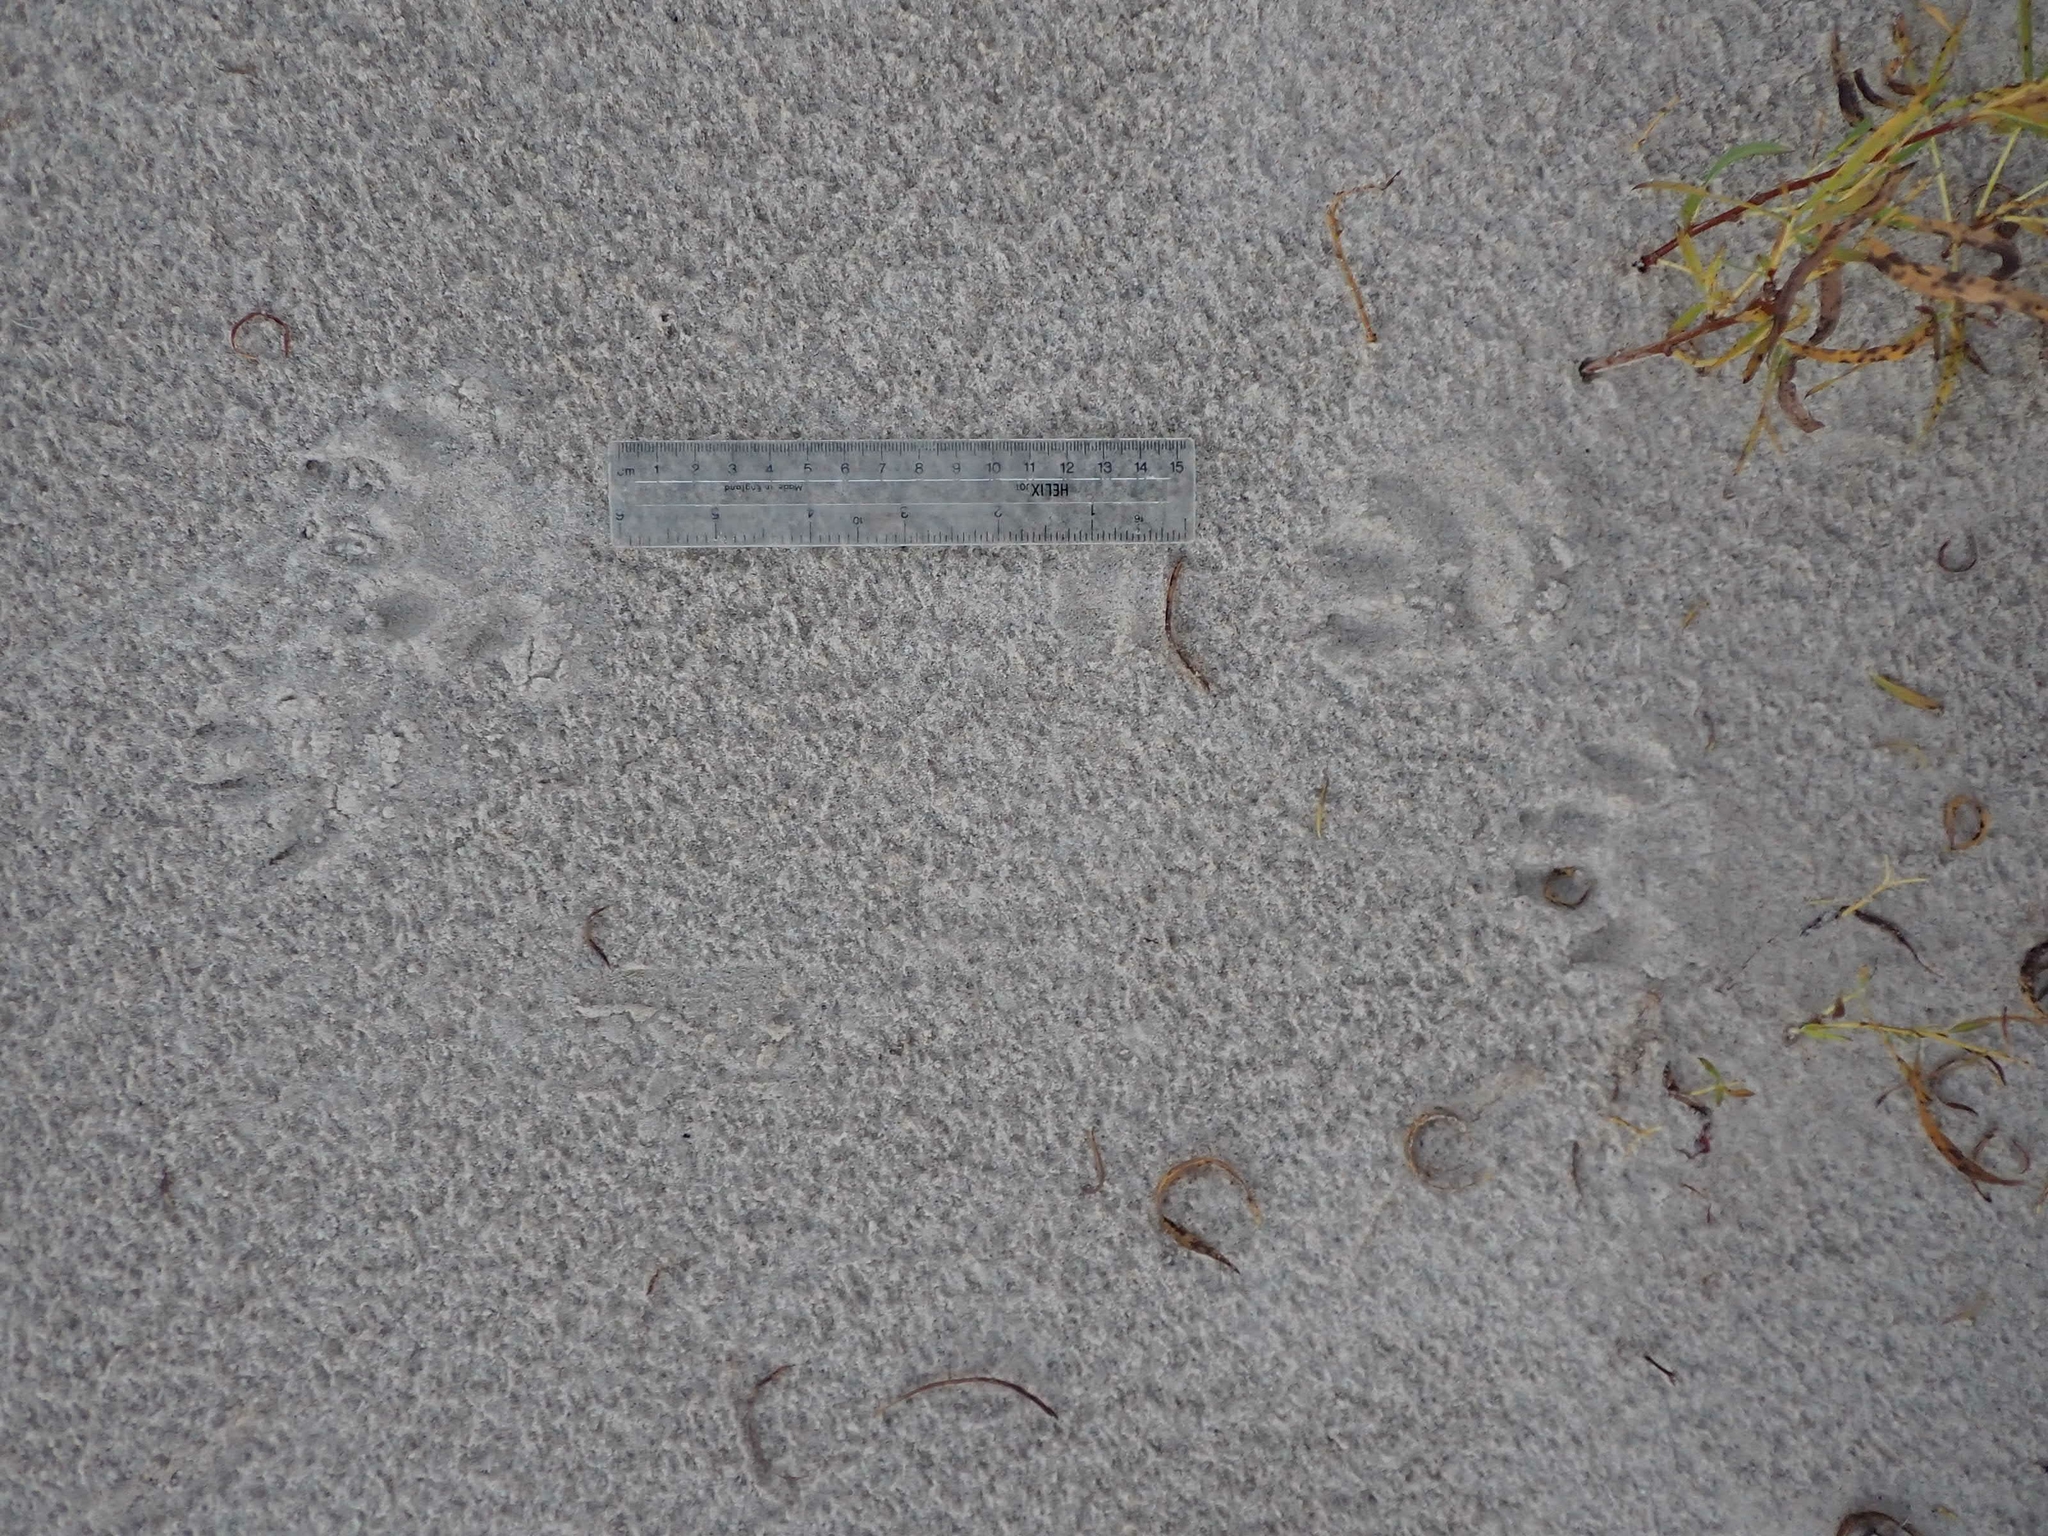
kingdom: Animalia
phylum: Chordata
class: Mammalia
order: Carnivora
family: Procyonidae
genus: Procyon
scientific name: Procyon lotor
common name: Raccoon
